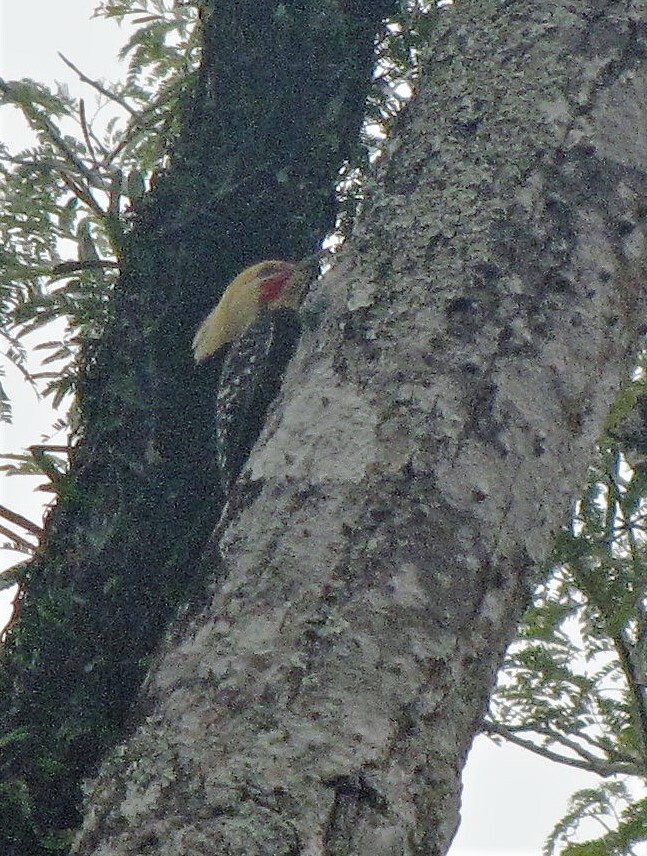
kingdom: Animalia
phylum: Chordata
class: Aves
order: Piciformes
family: Picidae
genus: Celeus
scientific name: Celeus flavescens
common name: Blond-crested woodpecker
